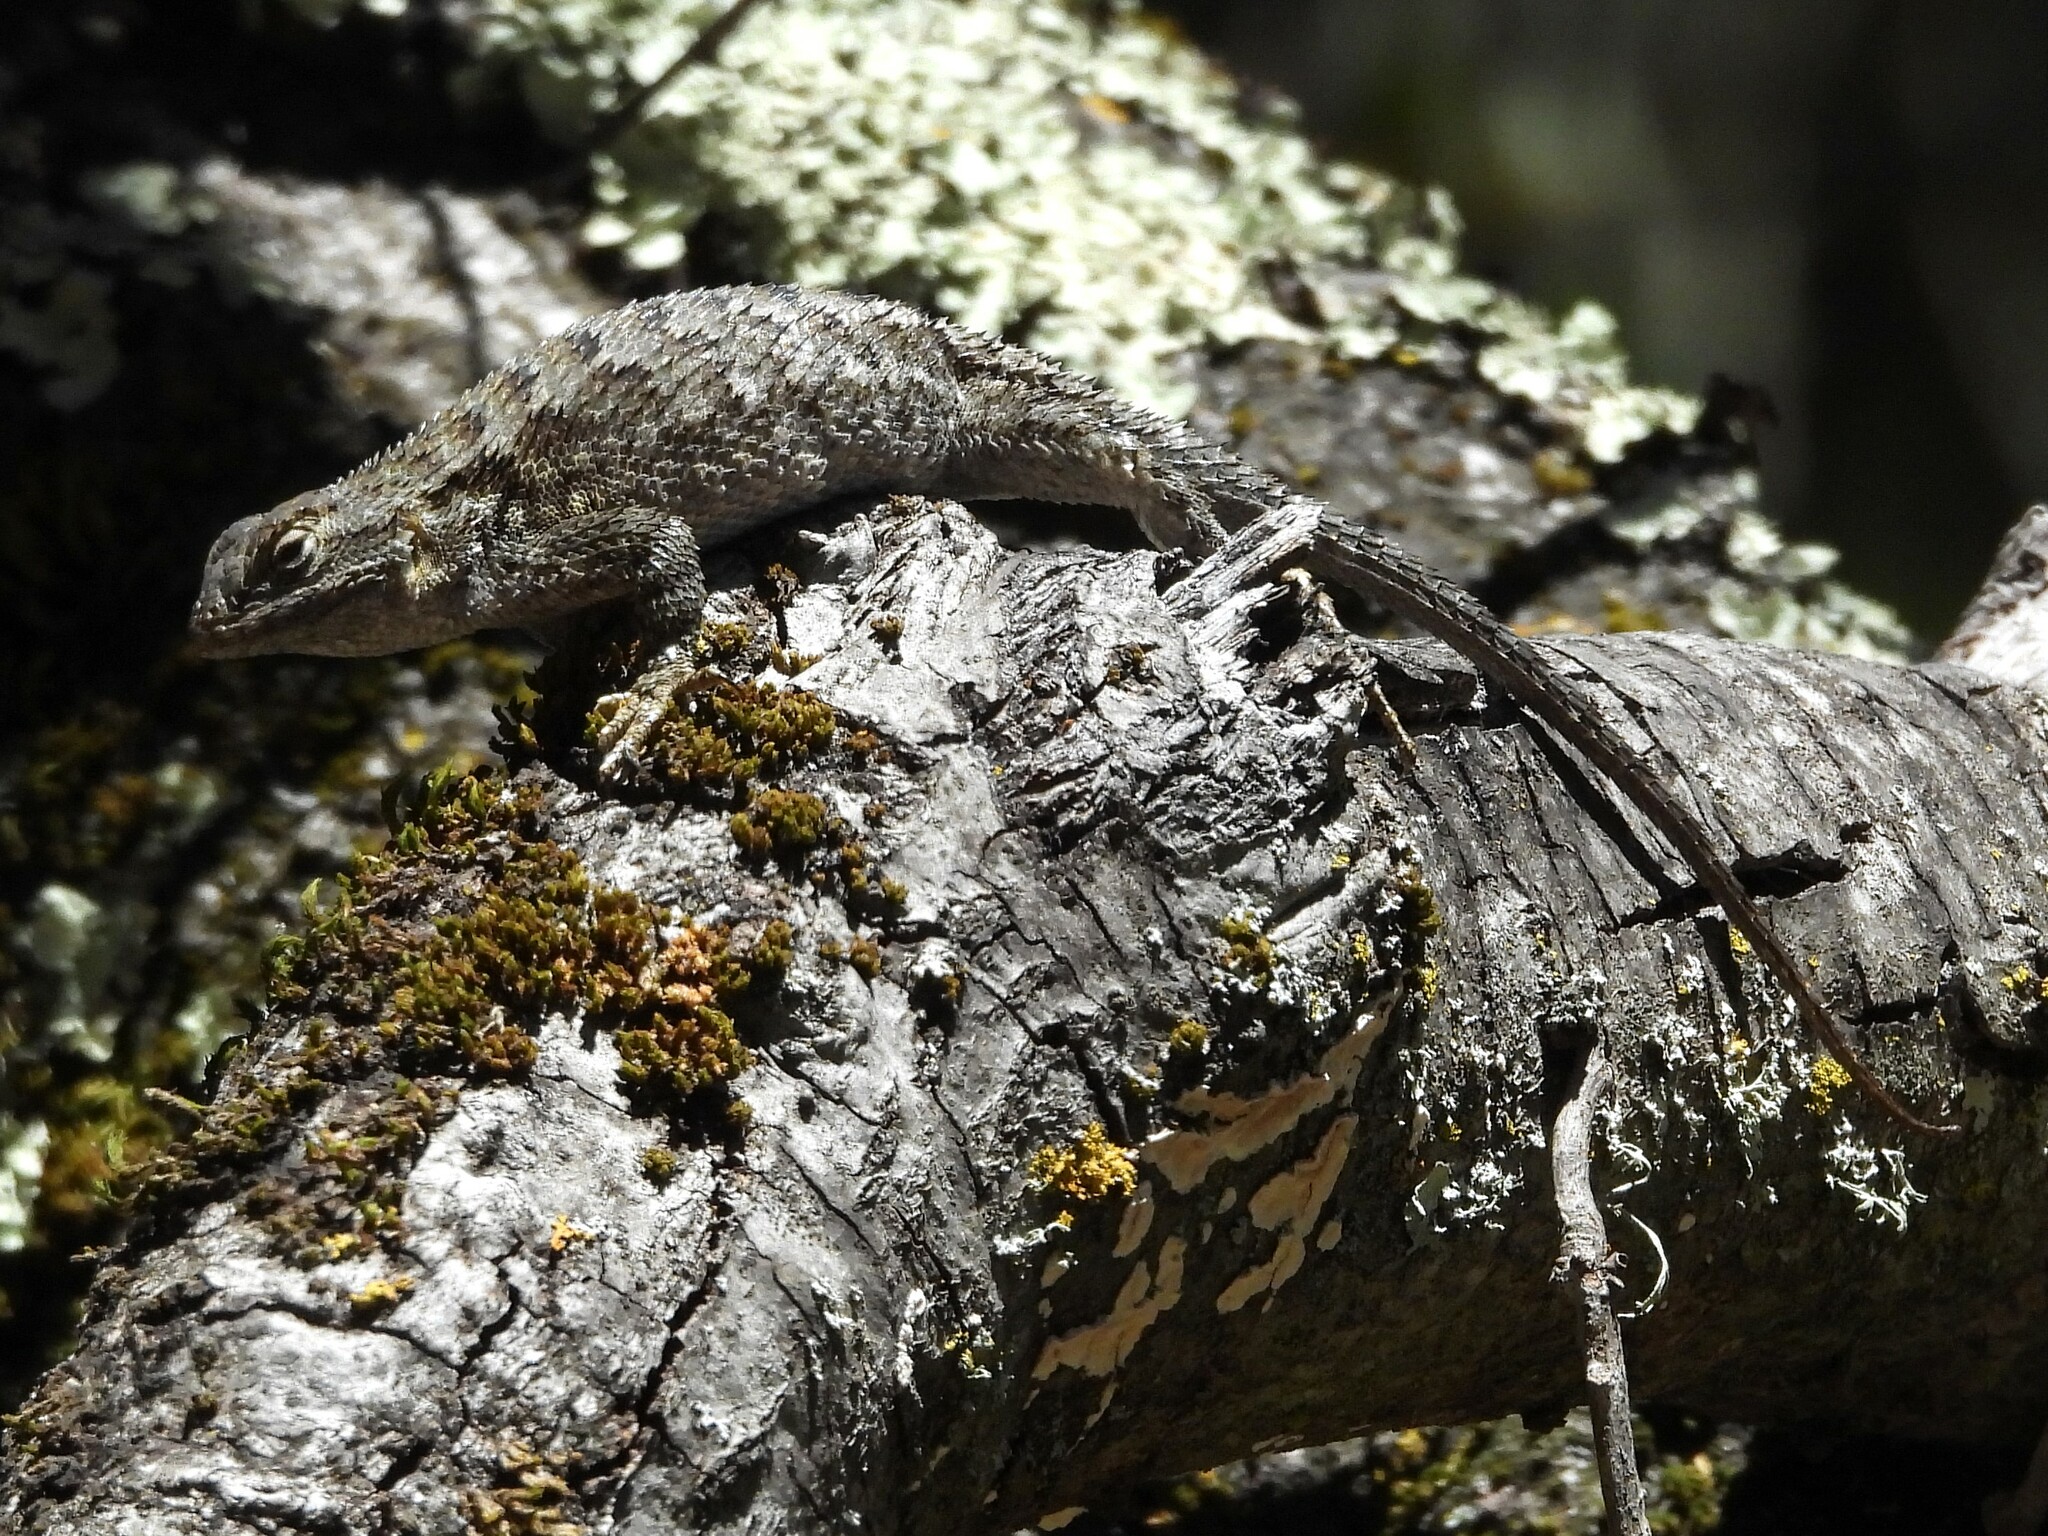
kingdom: Animalia
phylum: Chordata
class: Squamata
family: Phrynosomatidae
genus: Sceloporus
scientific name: Sceloporus occidentalis
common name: Western fence lizard
